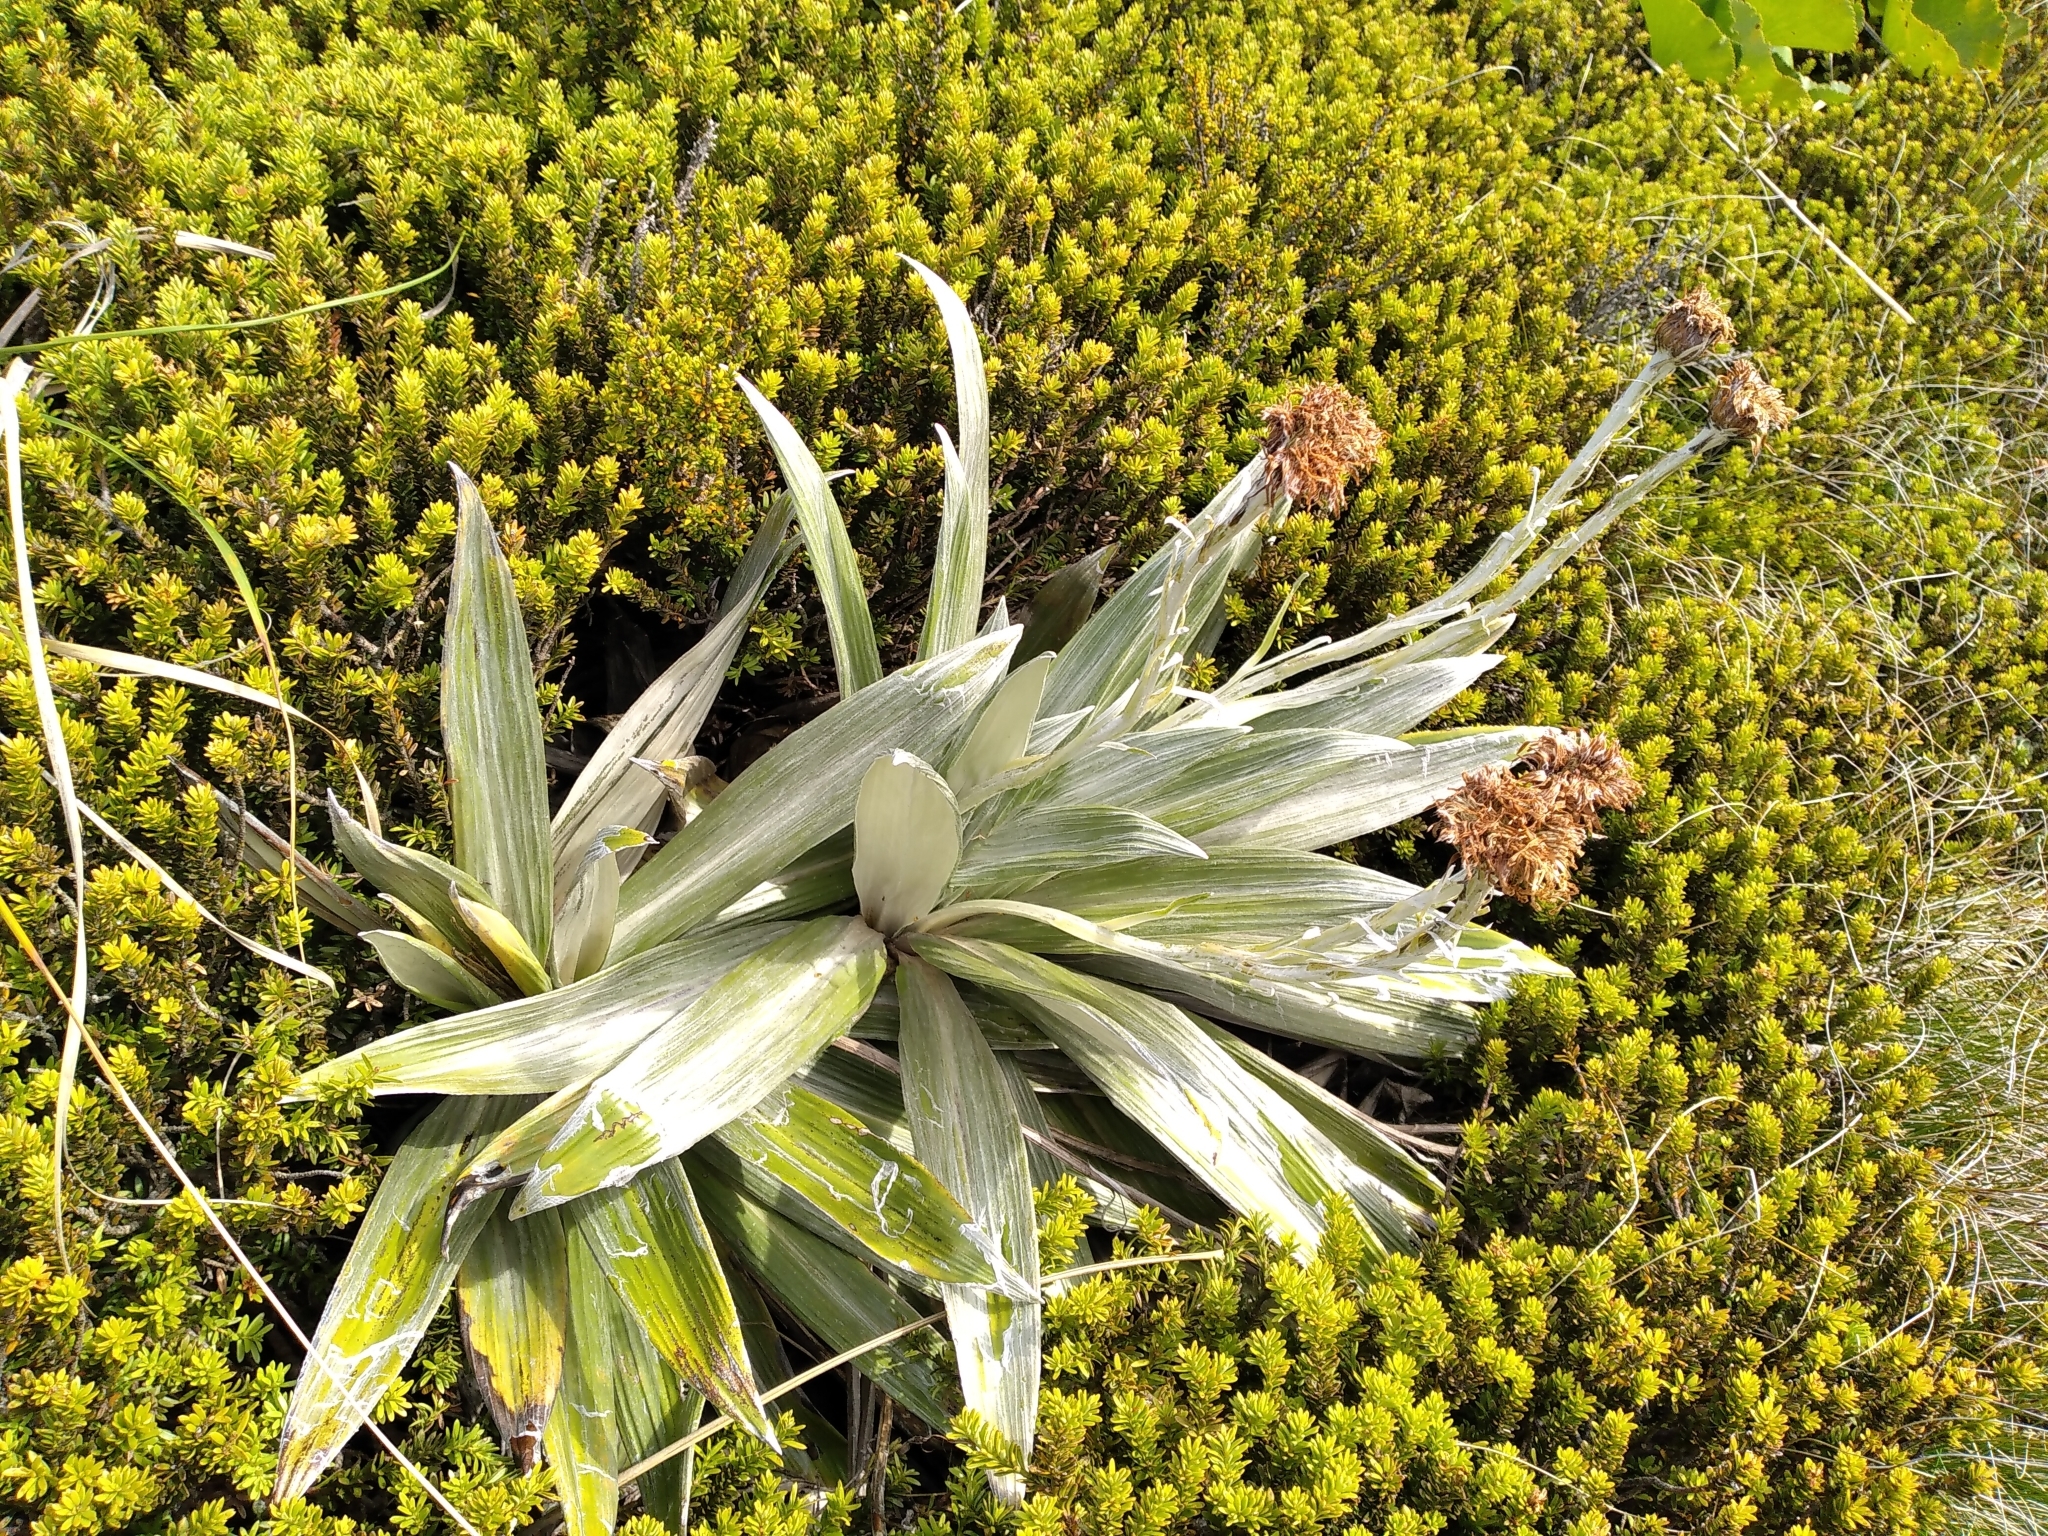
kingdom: Plantae
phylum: Tracheophyta
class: Magnoliopsida
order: Asterales
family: Asteraceae
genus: Celmisia
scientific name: Celmisia semicordata
